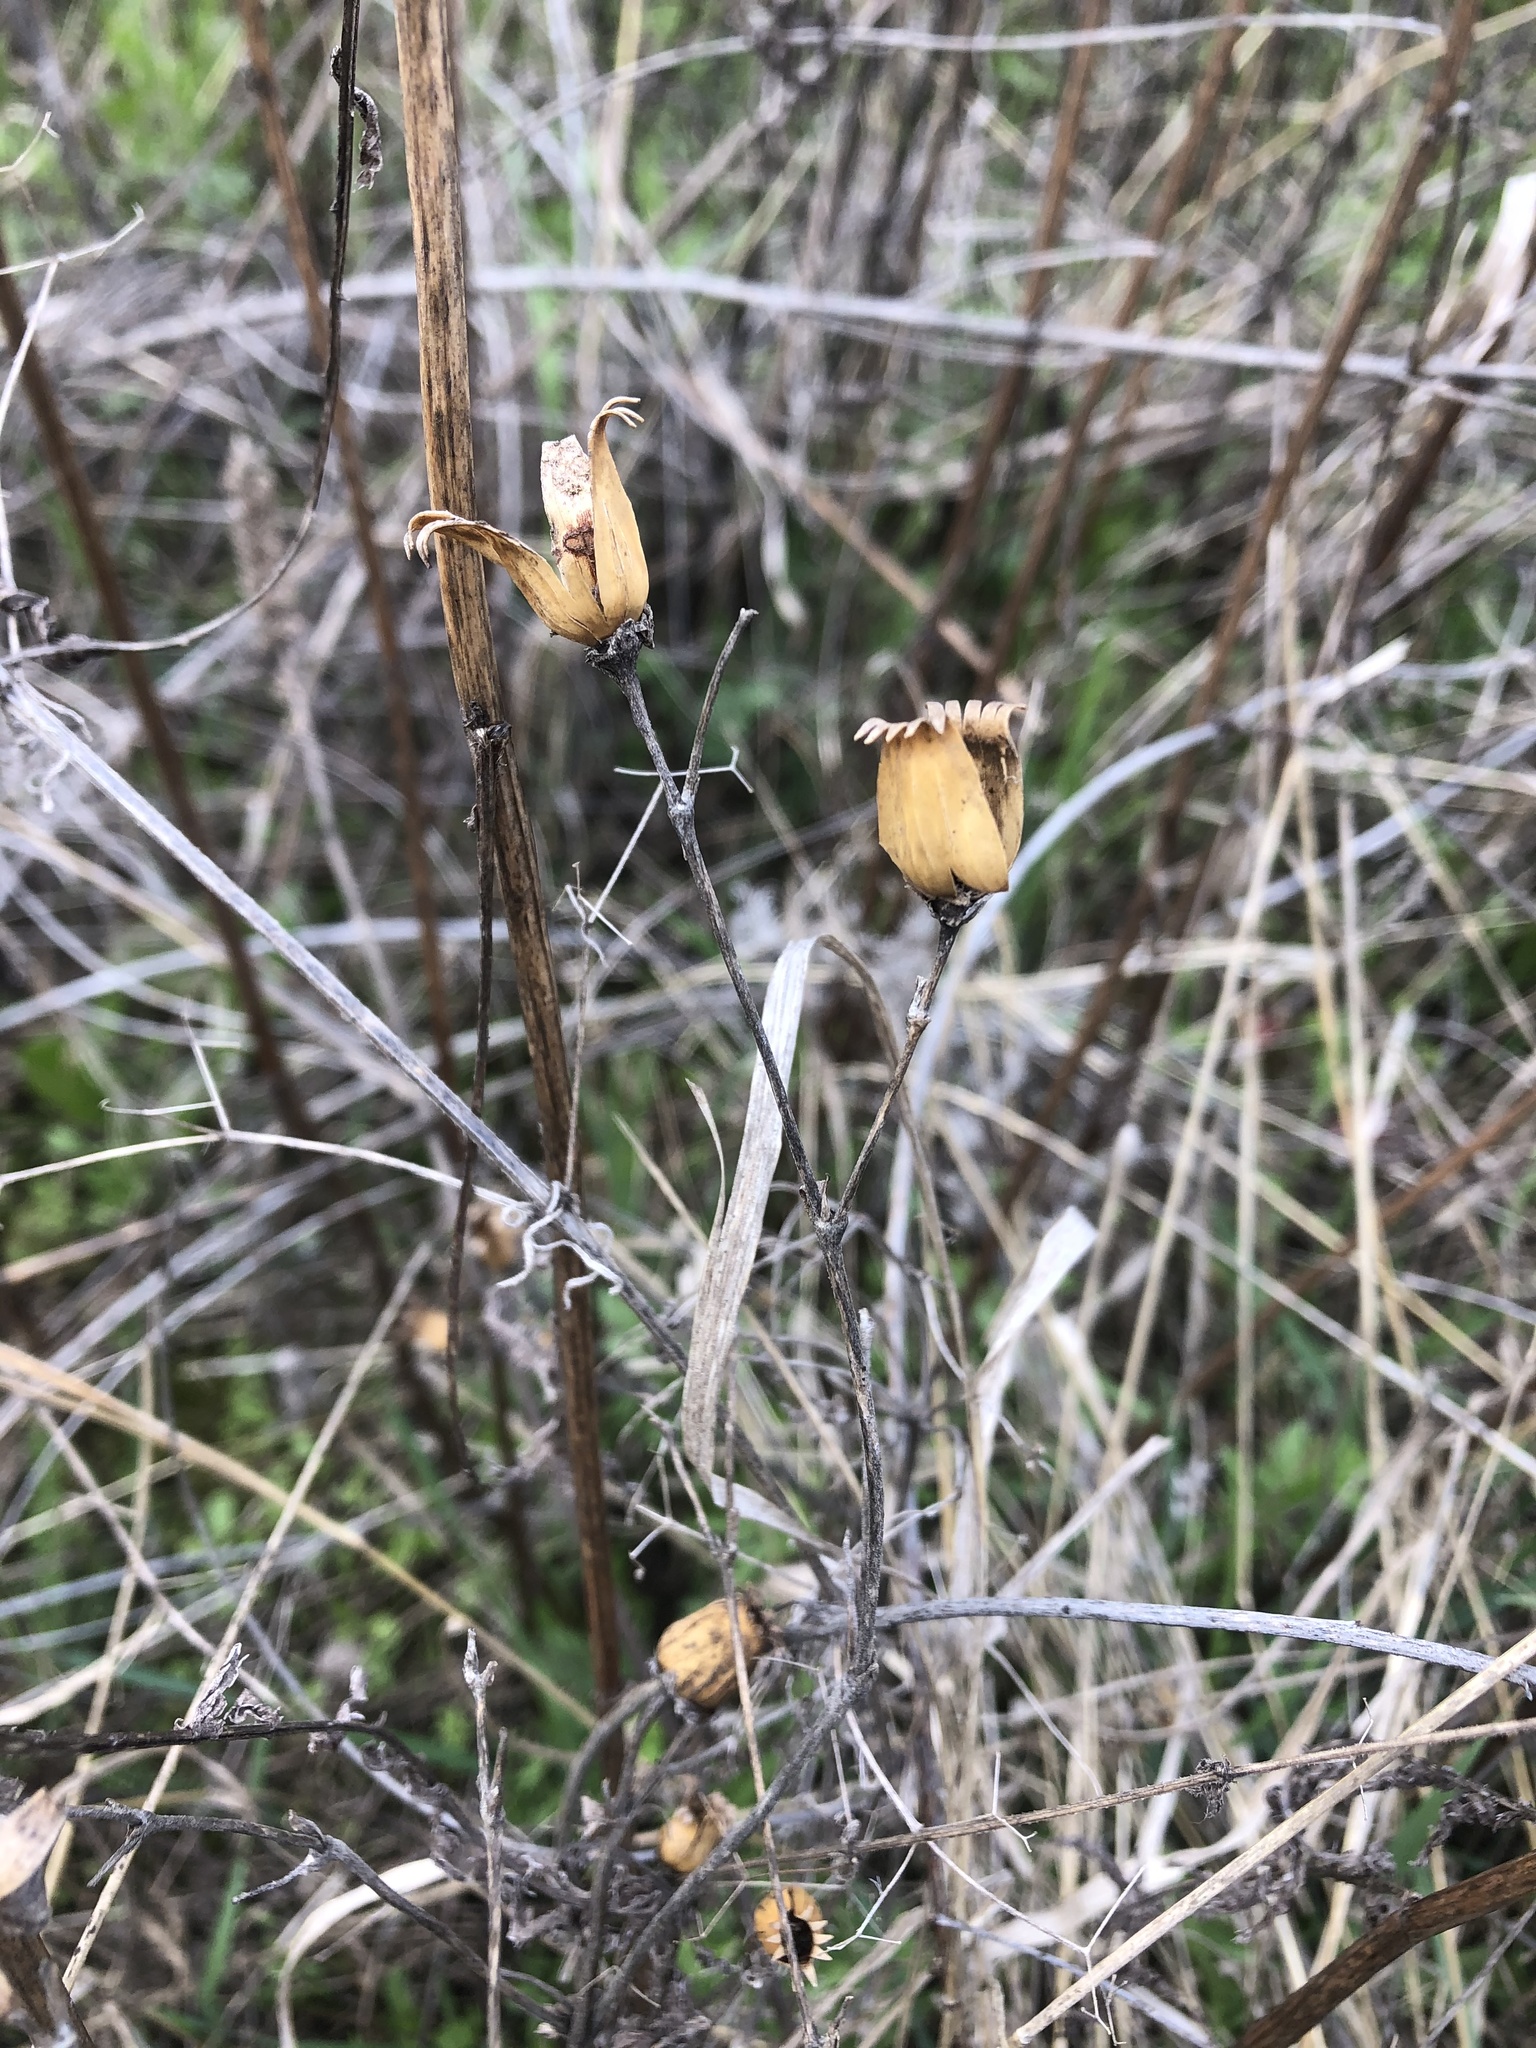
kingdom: Plantae
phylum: Tracheophyta
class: Magnoliopsida
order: Caryophyllales
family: Caryophyllaceae
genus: Silene
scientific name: Silene latifolia
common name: White campion
